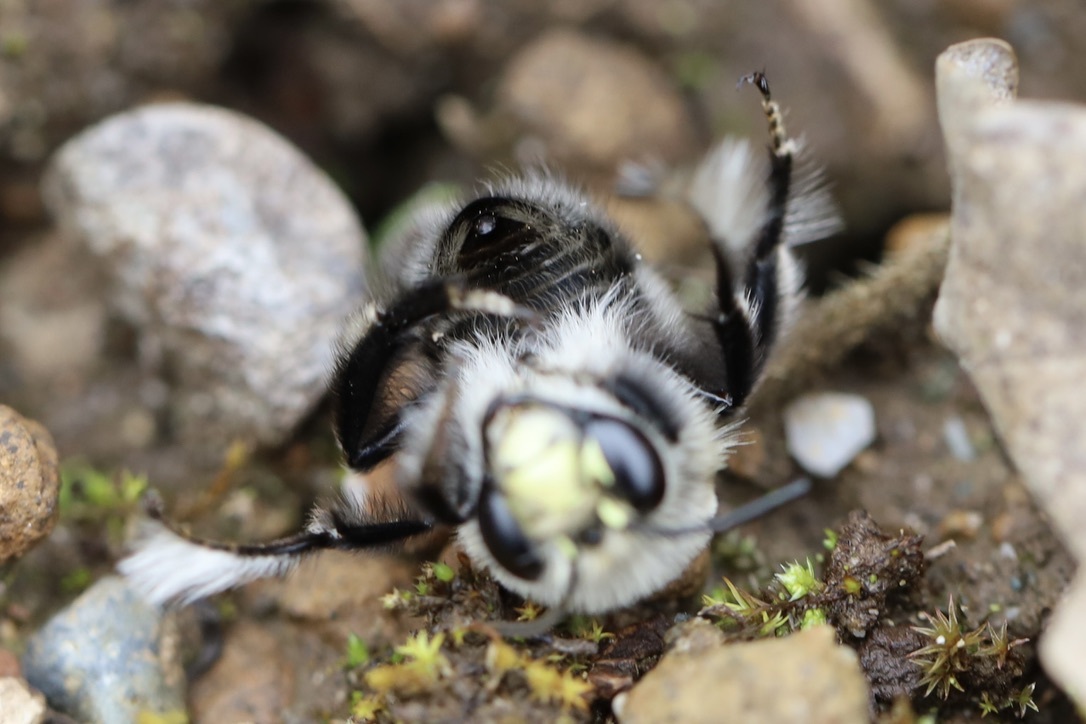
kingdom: Animalia
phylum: Arthropoda
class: Insecta
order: Hymenoptera
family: Apidae
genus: Anthophora
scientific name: Anthophora pacifica
